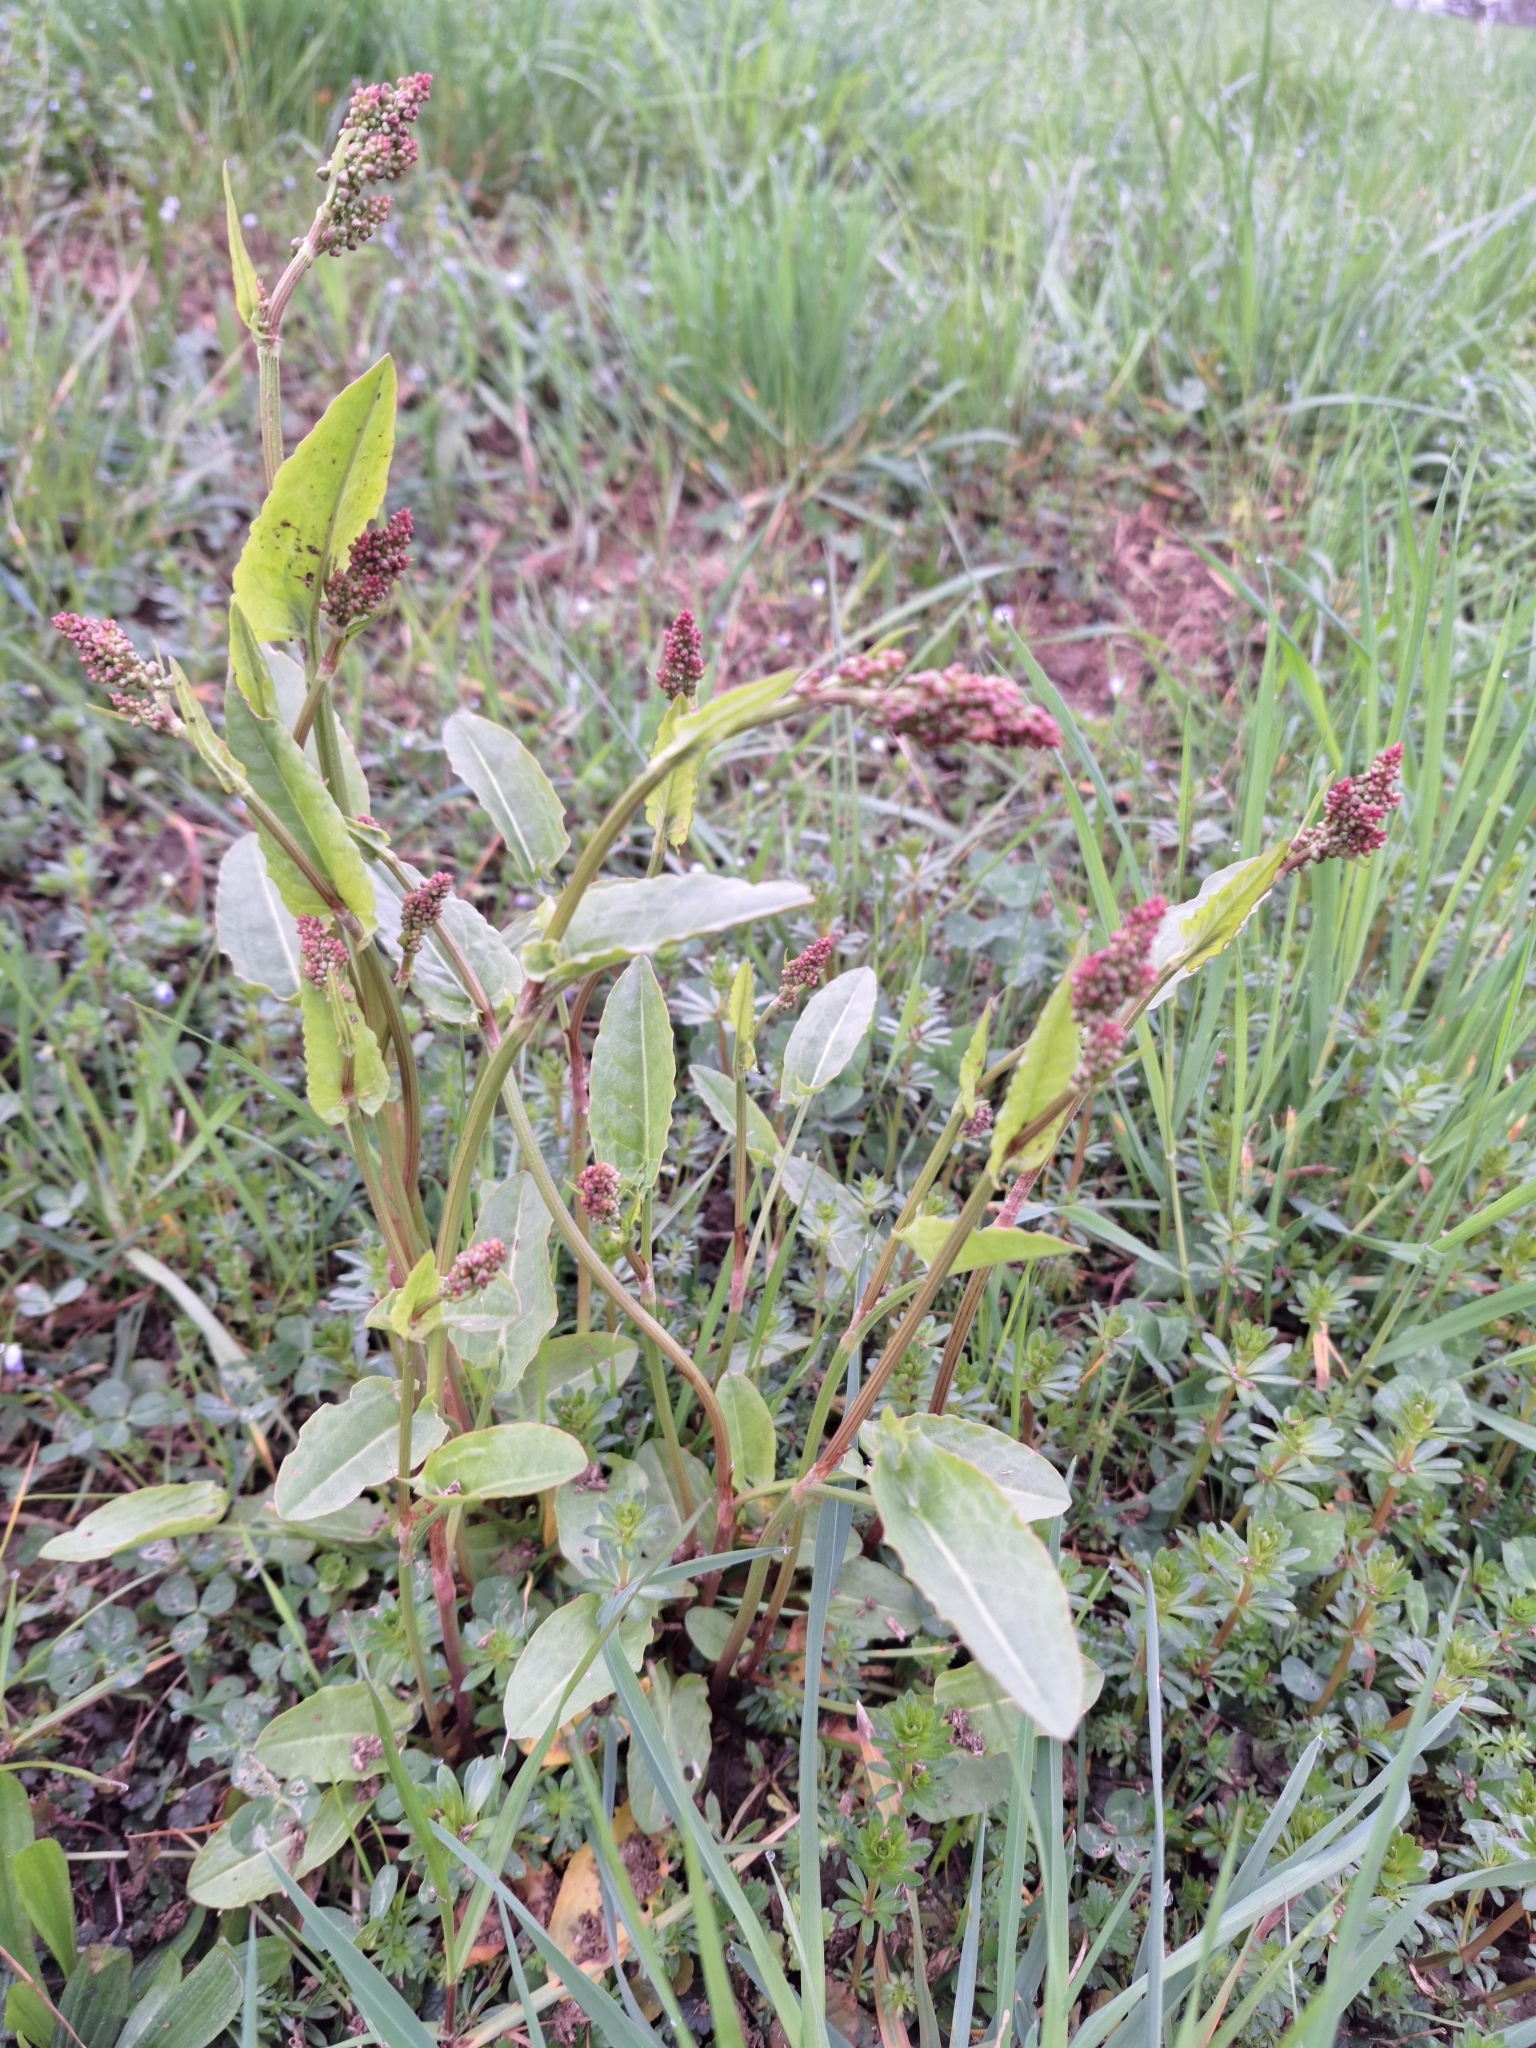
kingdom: Plantae
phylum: Tracheophyta
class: Magnoliopsida
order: Caryophyllales
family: Polygonaceae
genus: Rumex
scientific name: Rumex acetosa
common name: Garden sorrel
